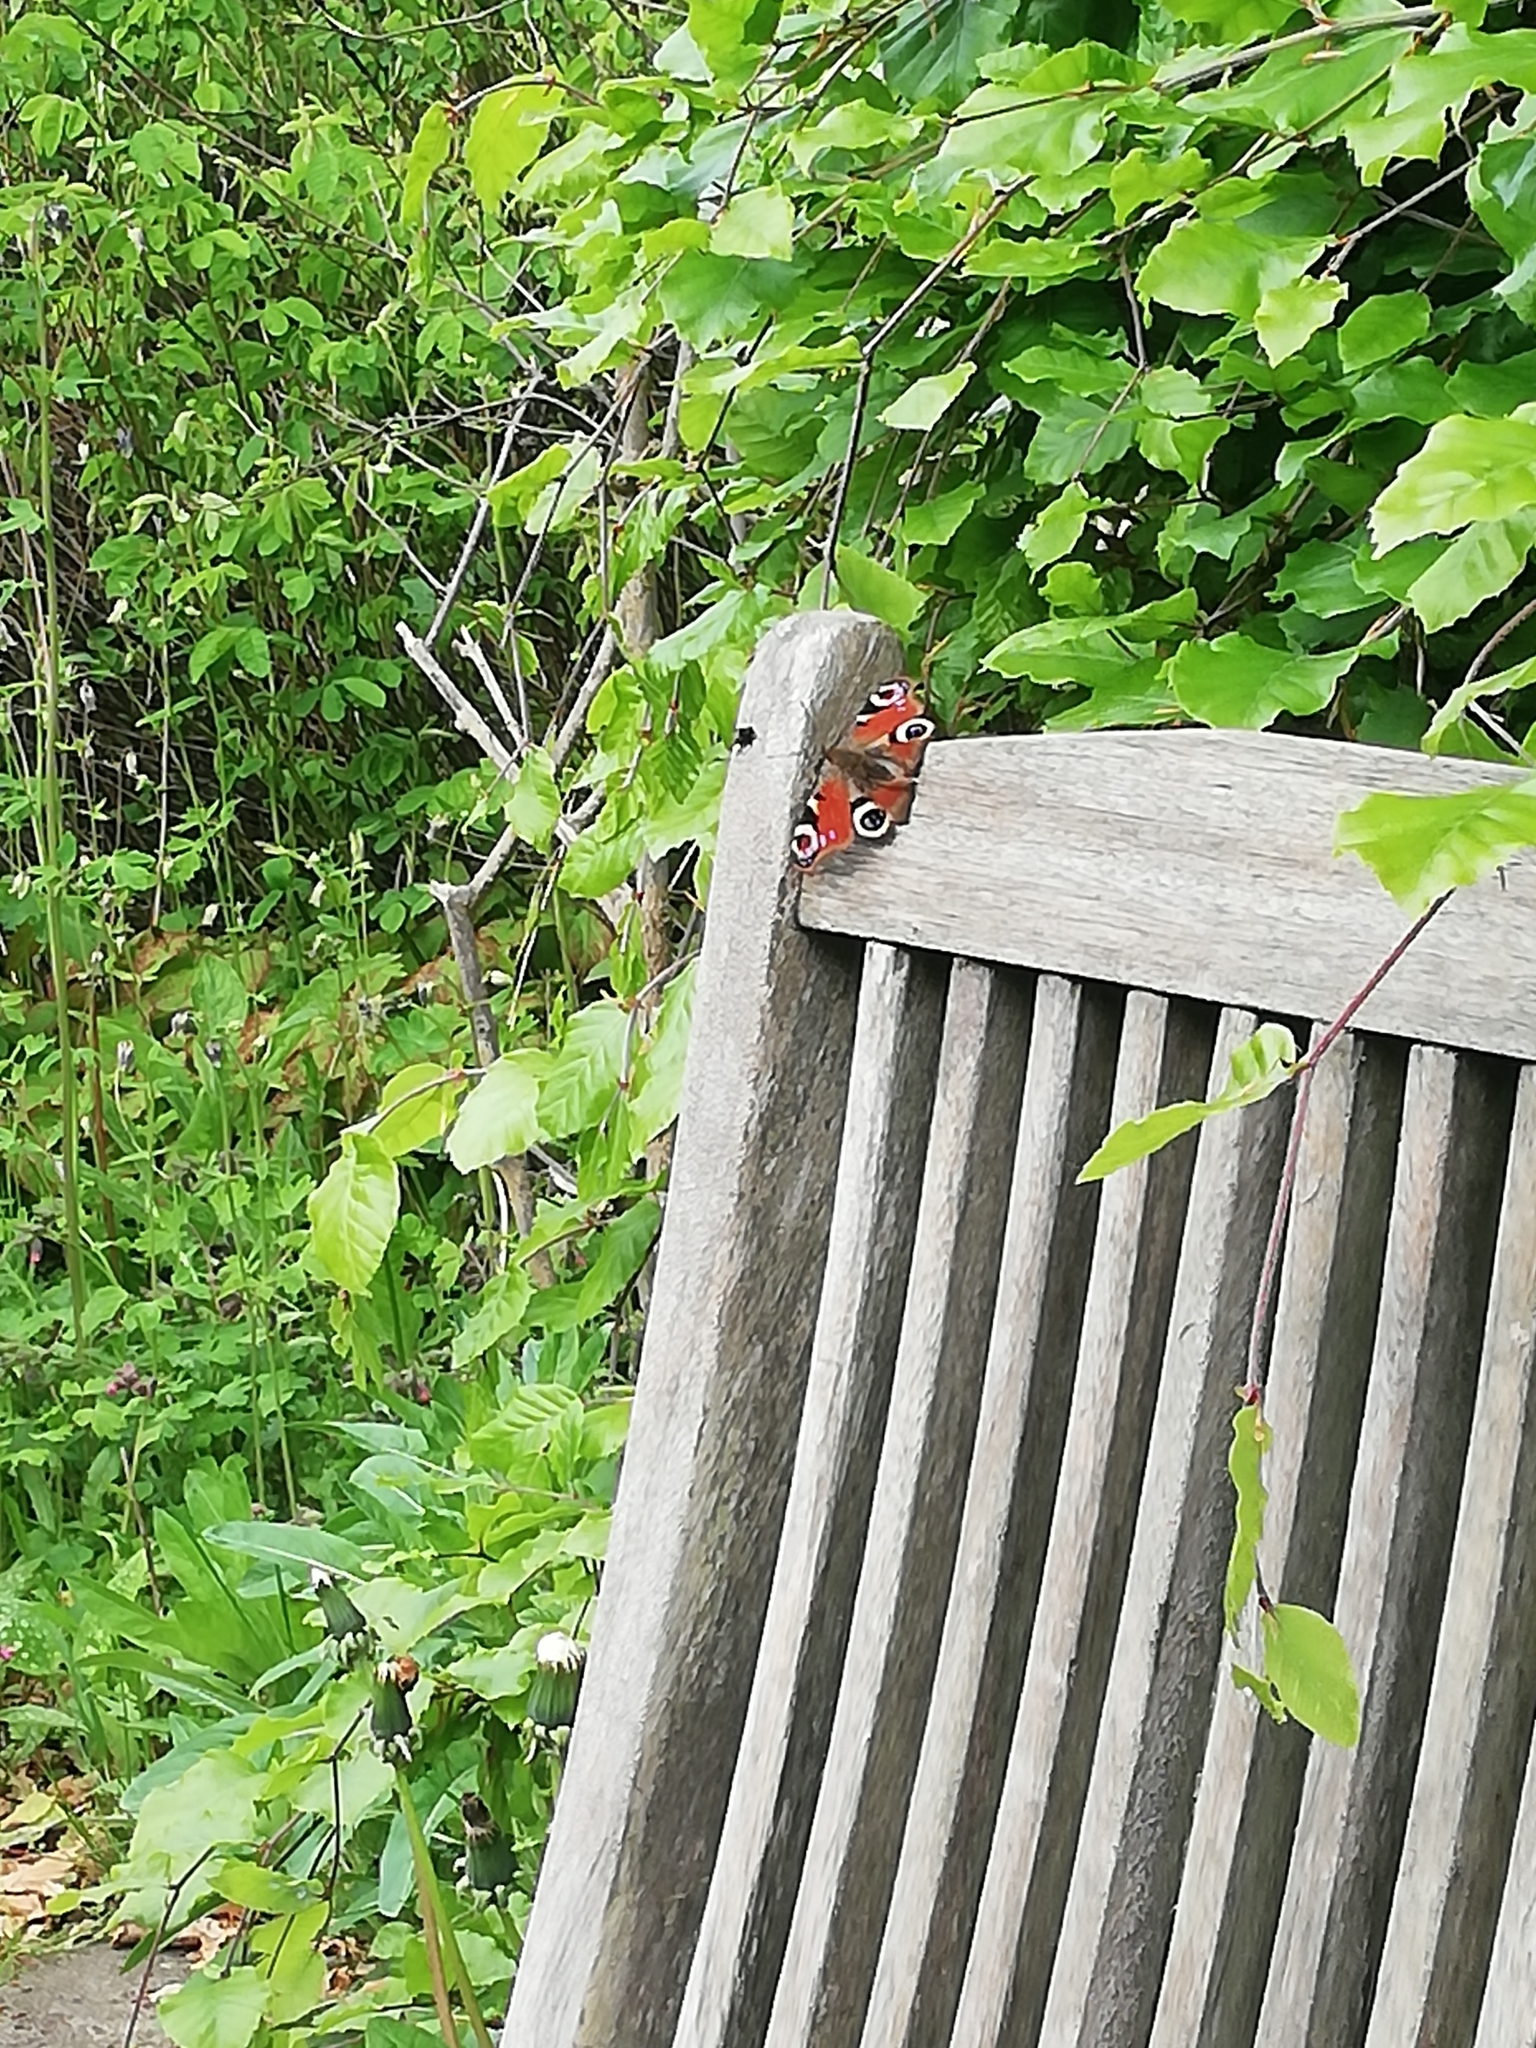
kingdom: Animalia
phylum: Arthropoda
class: Insecta
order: Lepidoptera
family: Nymphalidae
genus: Aglais
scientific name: Aglais io
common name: Peacock
